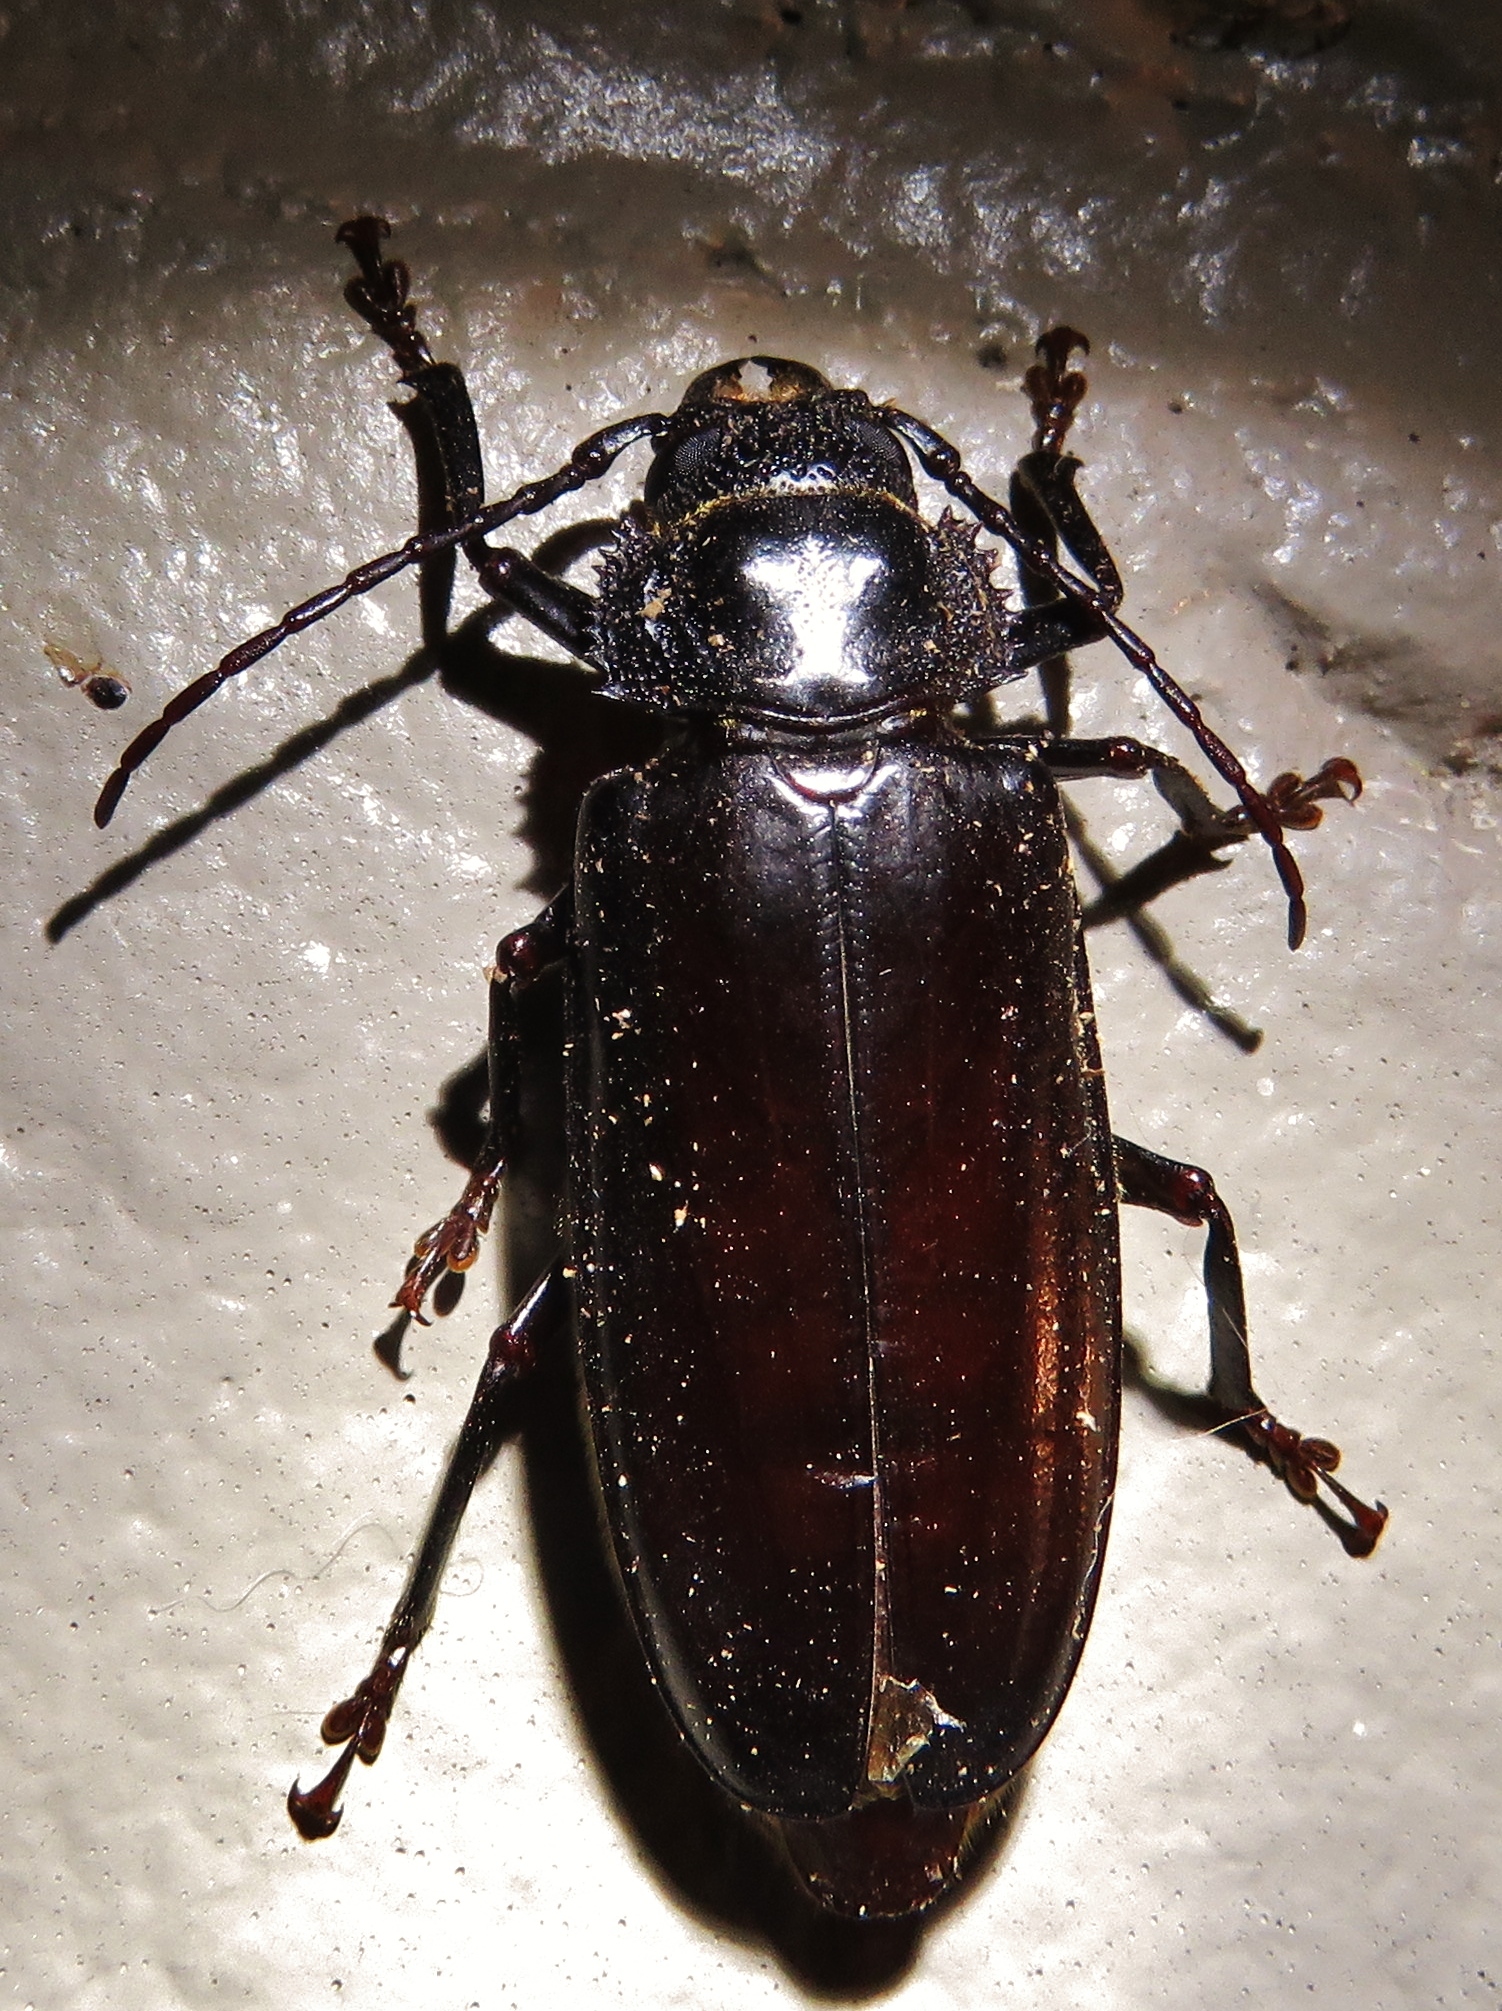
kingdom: Animalia
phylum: Arthropoda
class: Insecta
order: Coleoptera
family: Cerambycidae
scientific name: Cerambycidae
